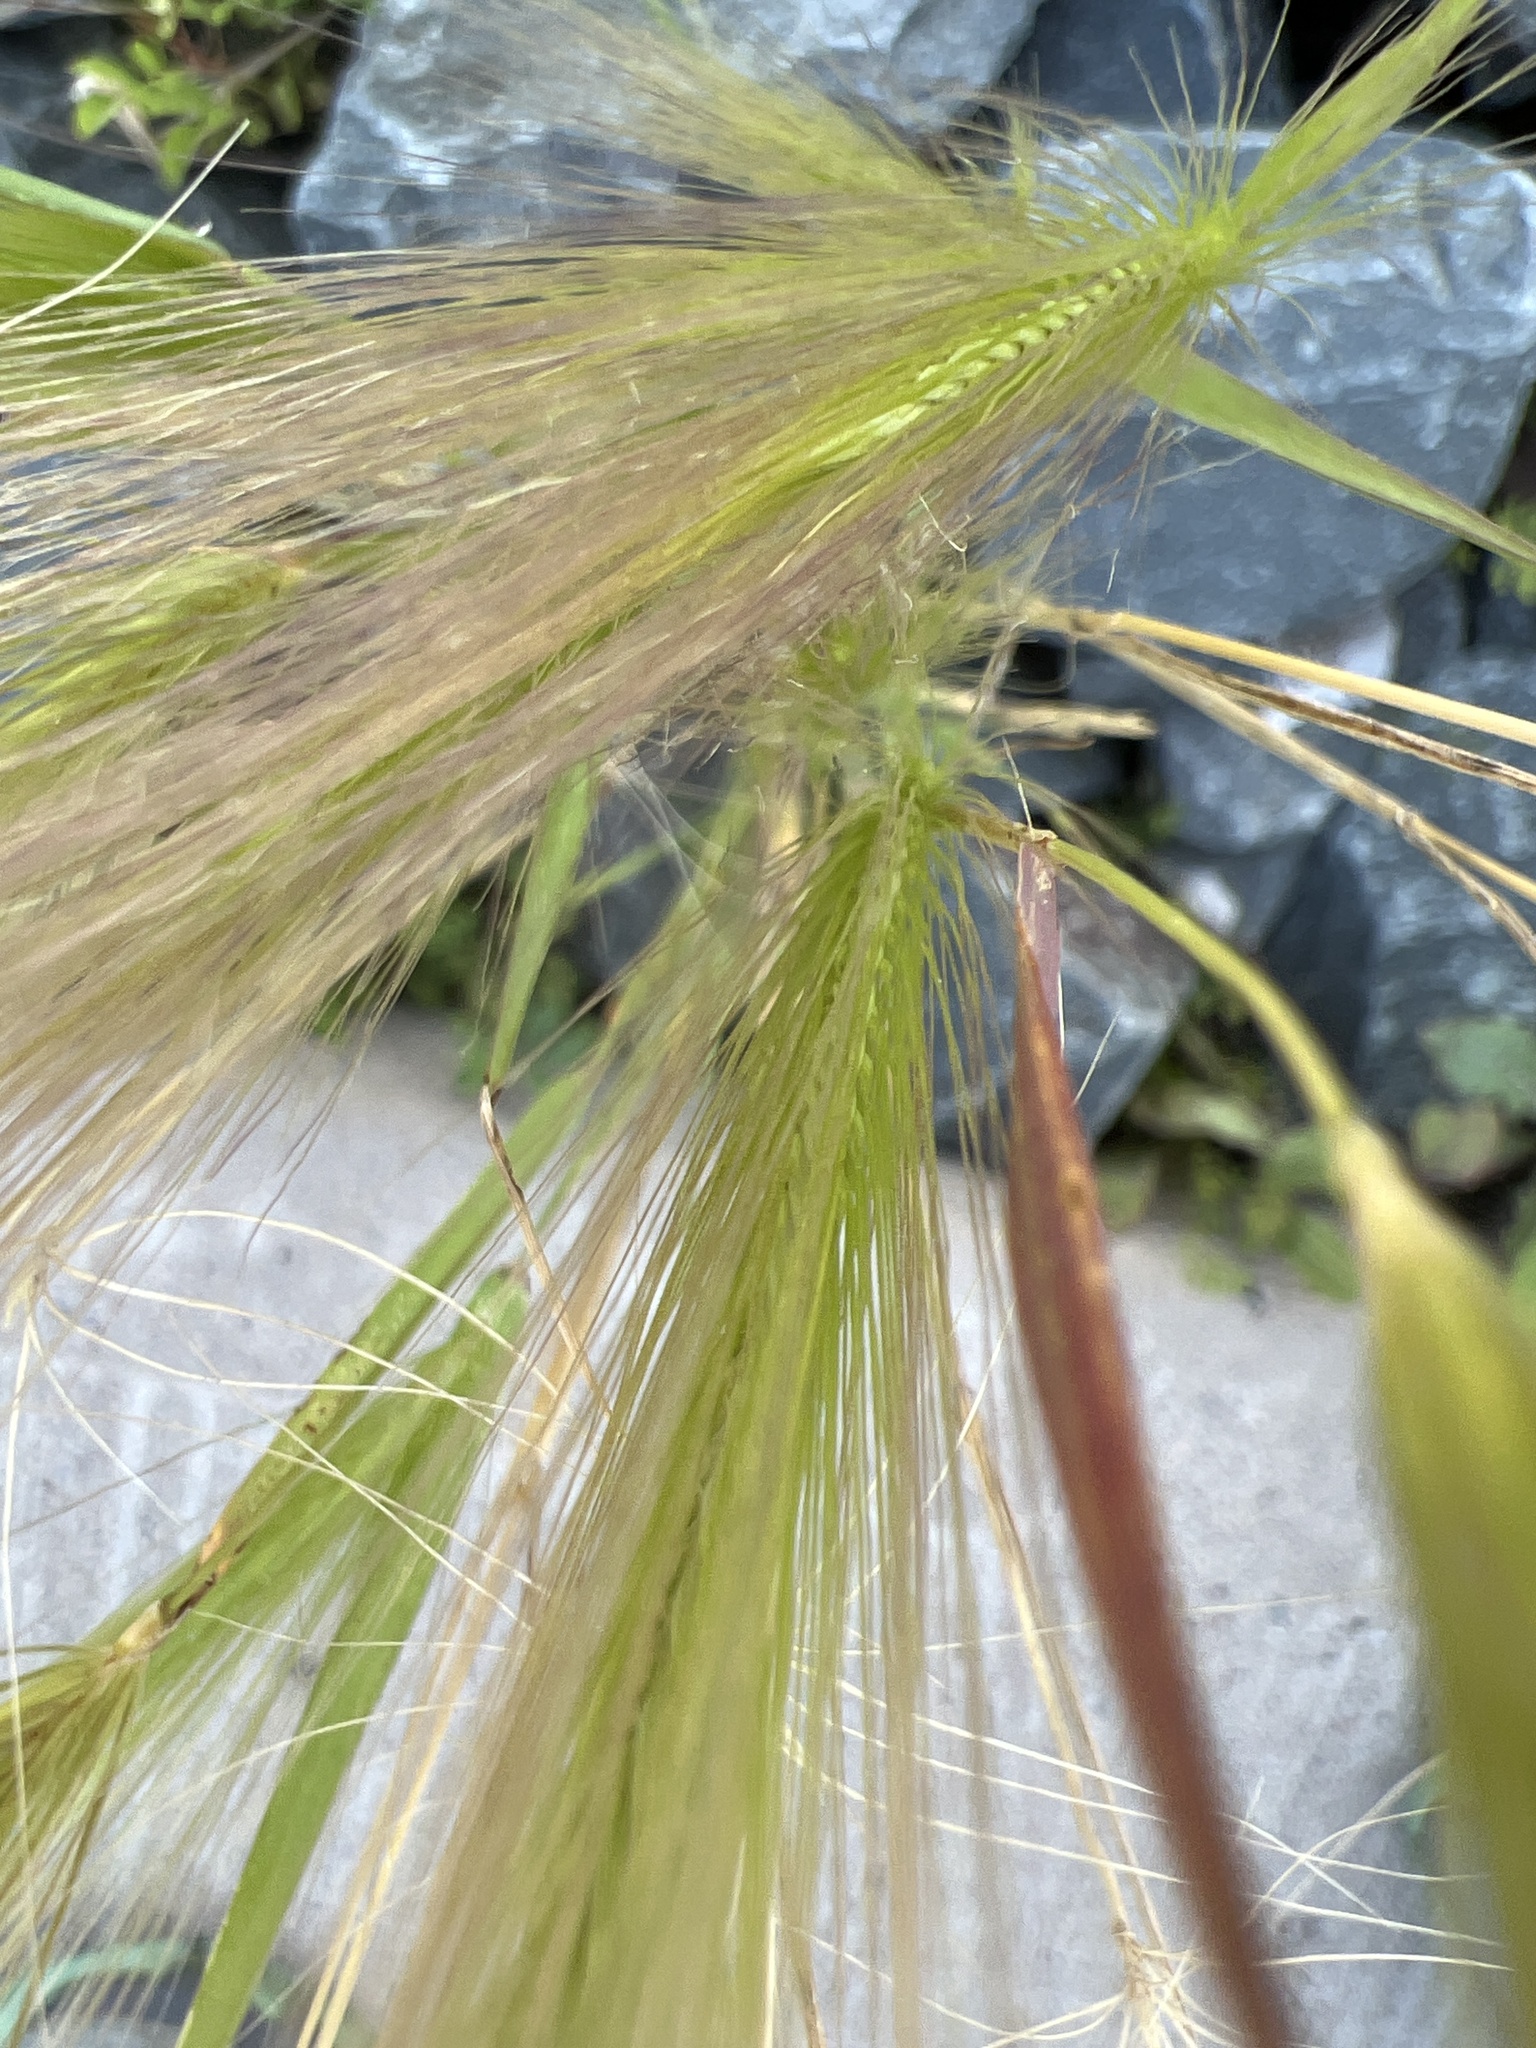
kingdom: Plantae
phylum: Tracheophyta
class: Liliopsida
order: Poales
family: Poaceae
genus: Hordeum
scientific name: Hordeum jubatum
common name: Foxtail barley
